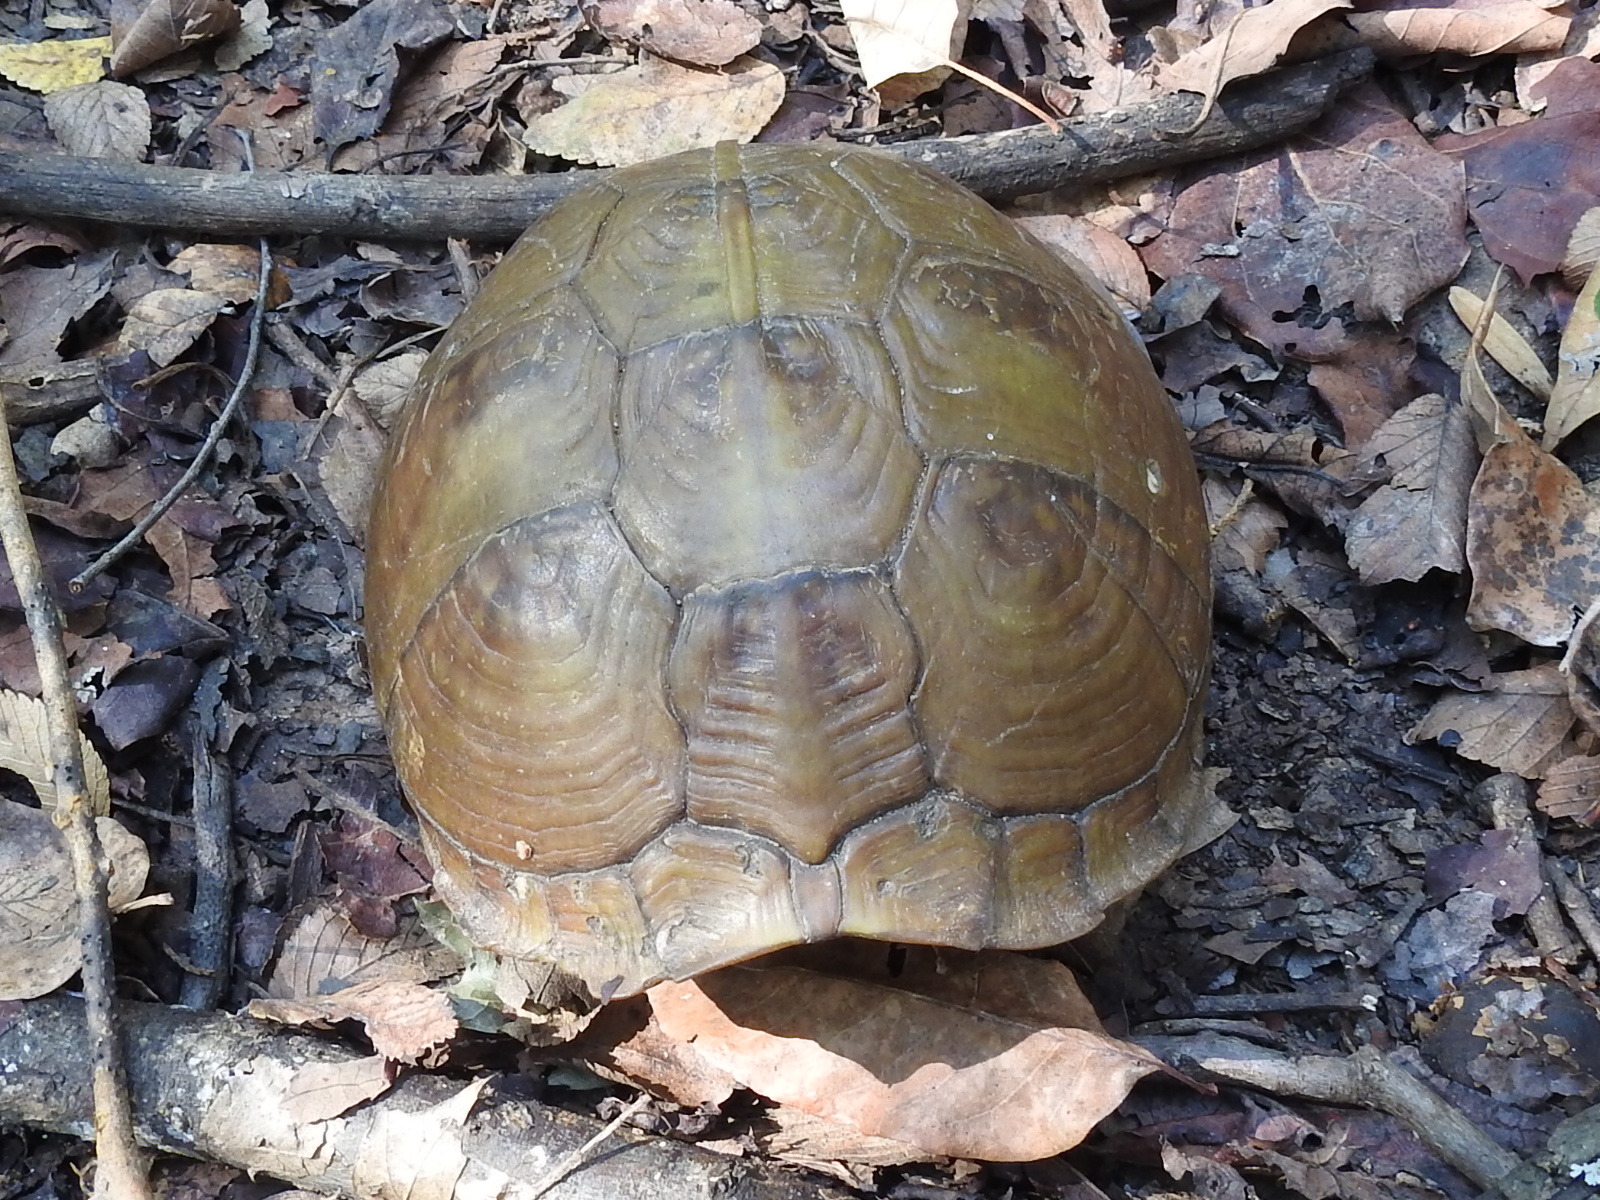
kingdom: Animalia
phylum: Chordata
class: Testudines
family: Emydidae
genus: Terrapene
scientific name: Terrapene carolina
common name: Common box turtle
